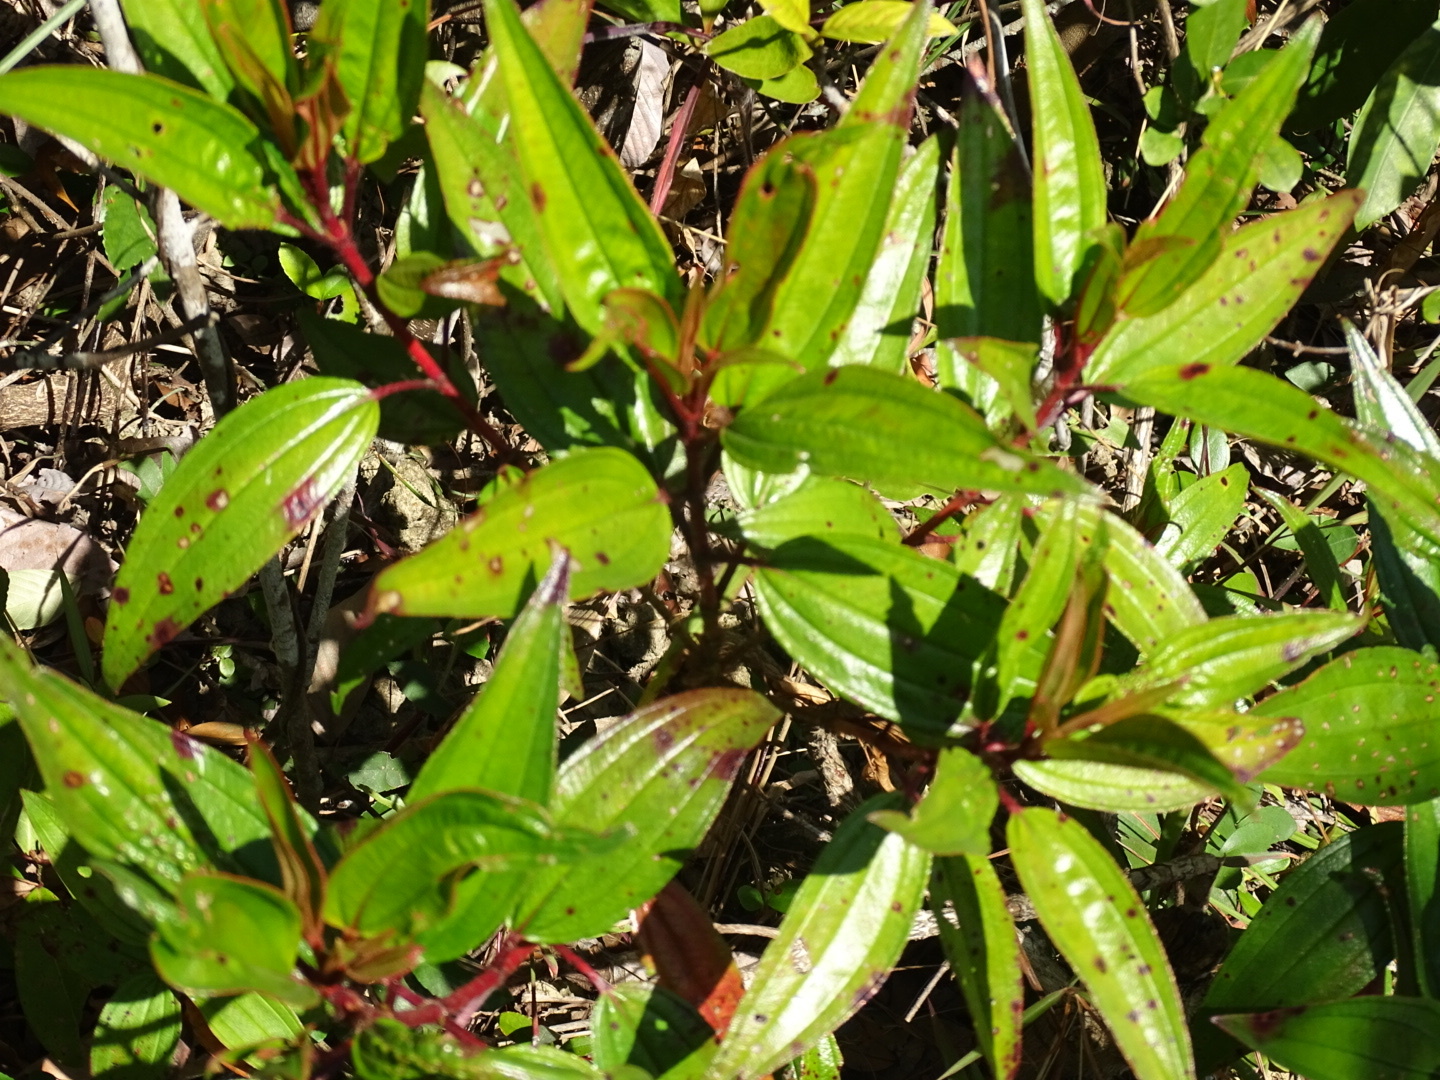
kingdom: Plantae
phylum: Tracheophyta
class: Magnoliopsida
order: Myrtales
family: Melastomataceae
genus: Melastoma
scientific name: Melastoma sanguineum
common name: Red melastome
